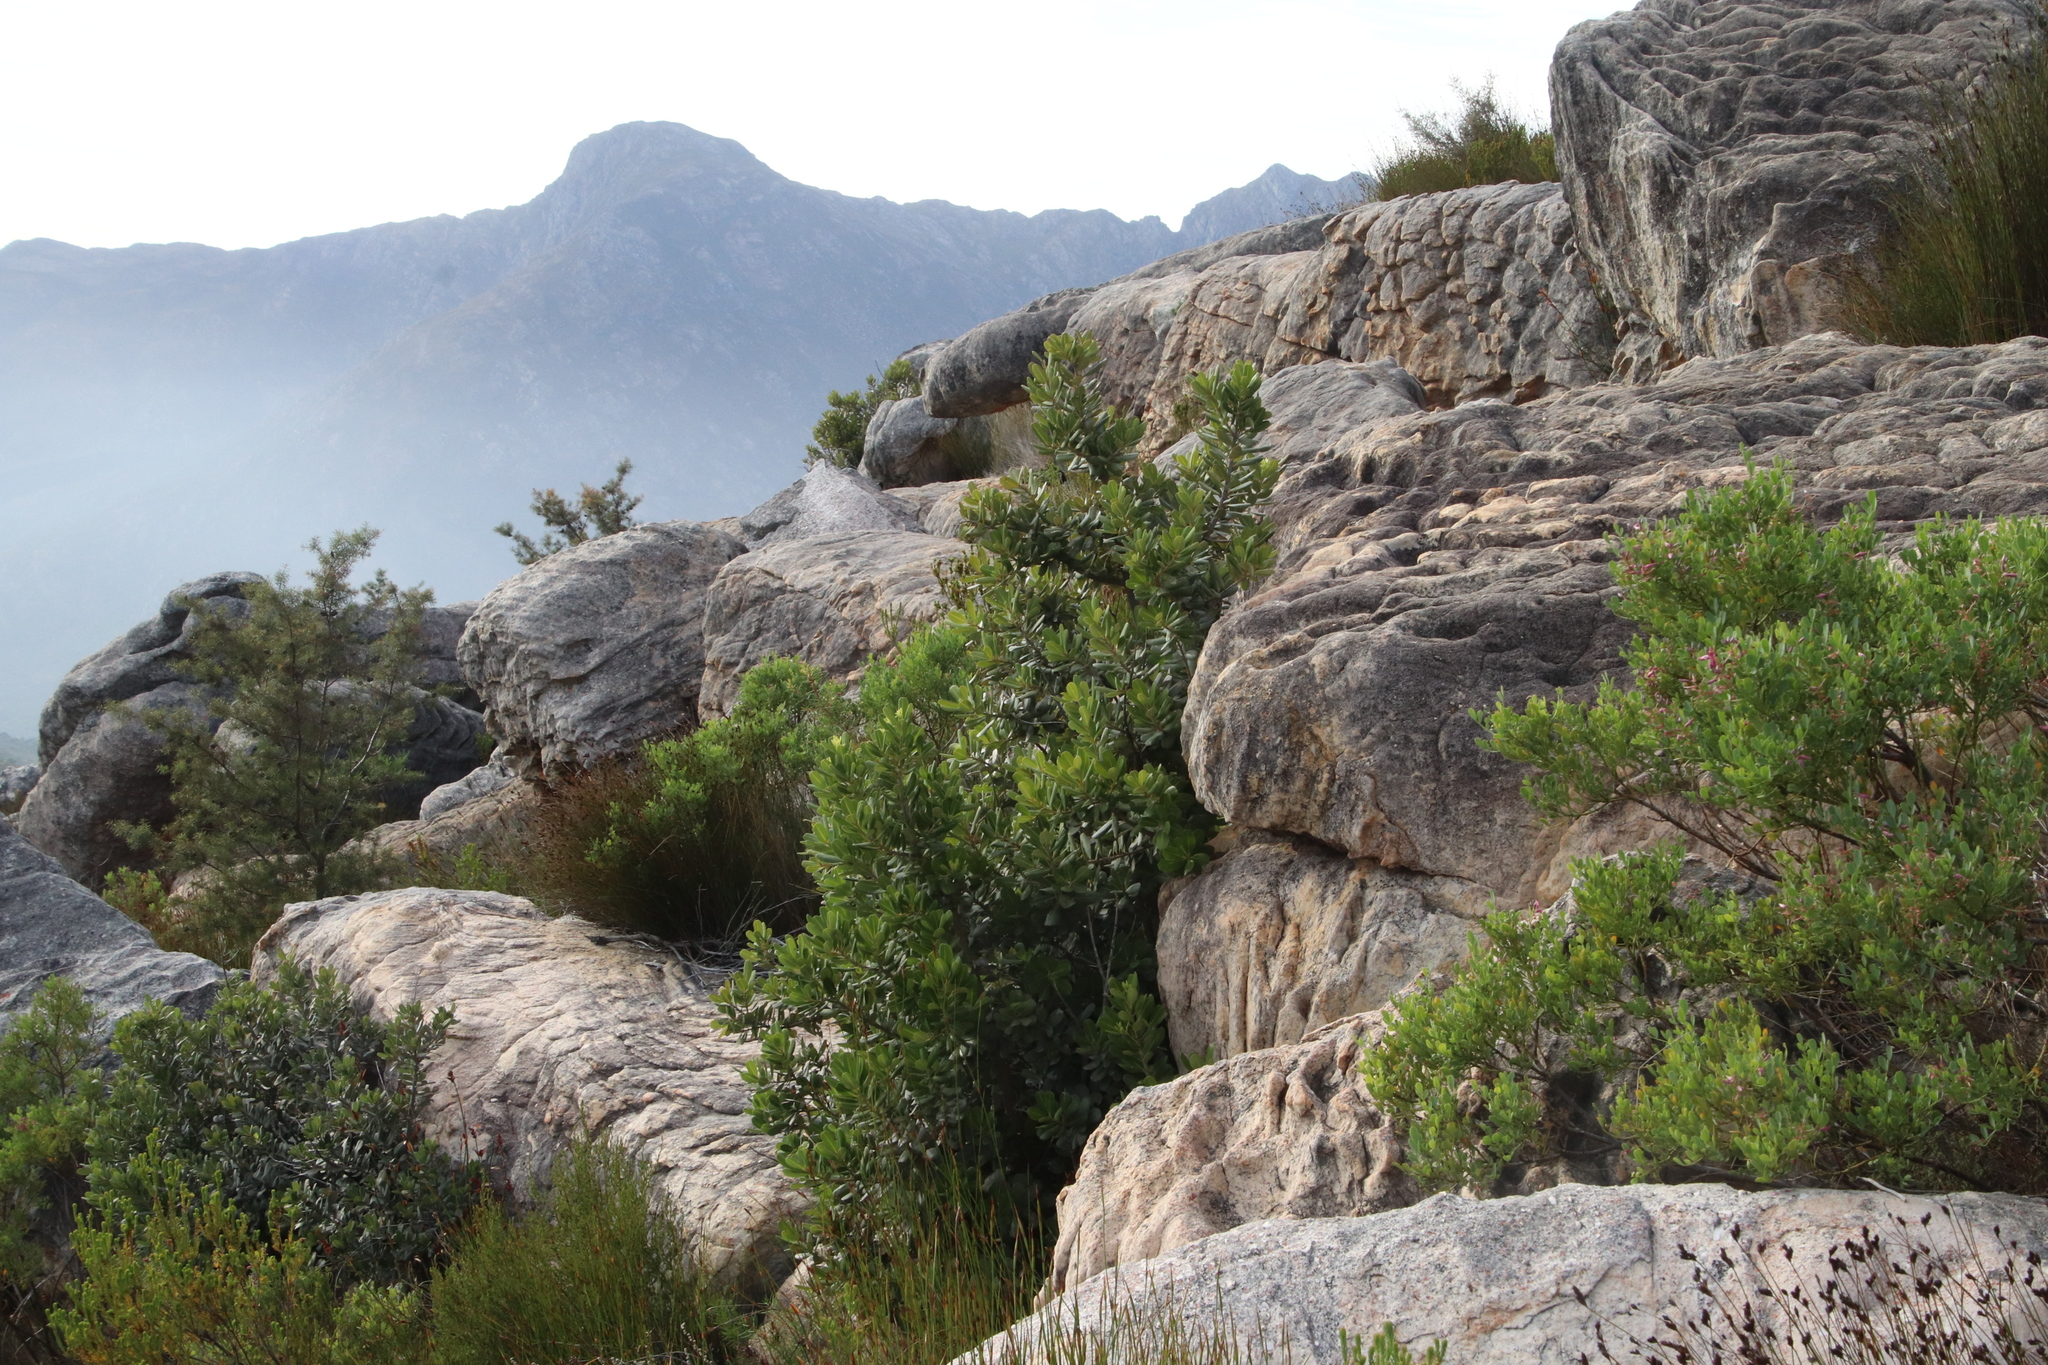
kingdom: Plantae
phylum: Tracheophyta
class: Magnoliopsida
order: Sapindales
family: Anacardiaceae
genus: Heeria
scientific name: Heeria argentea
